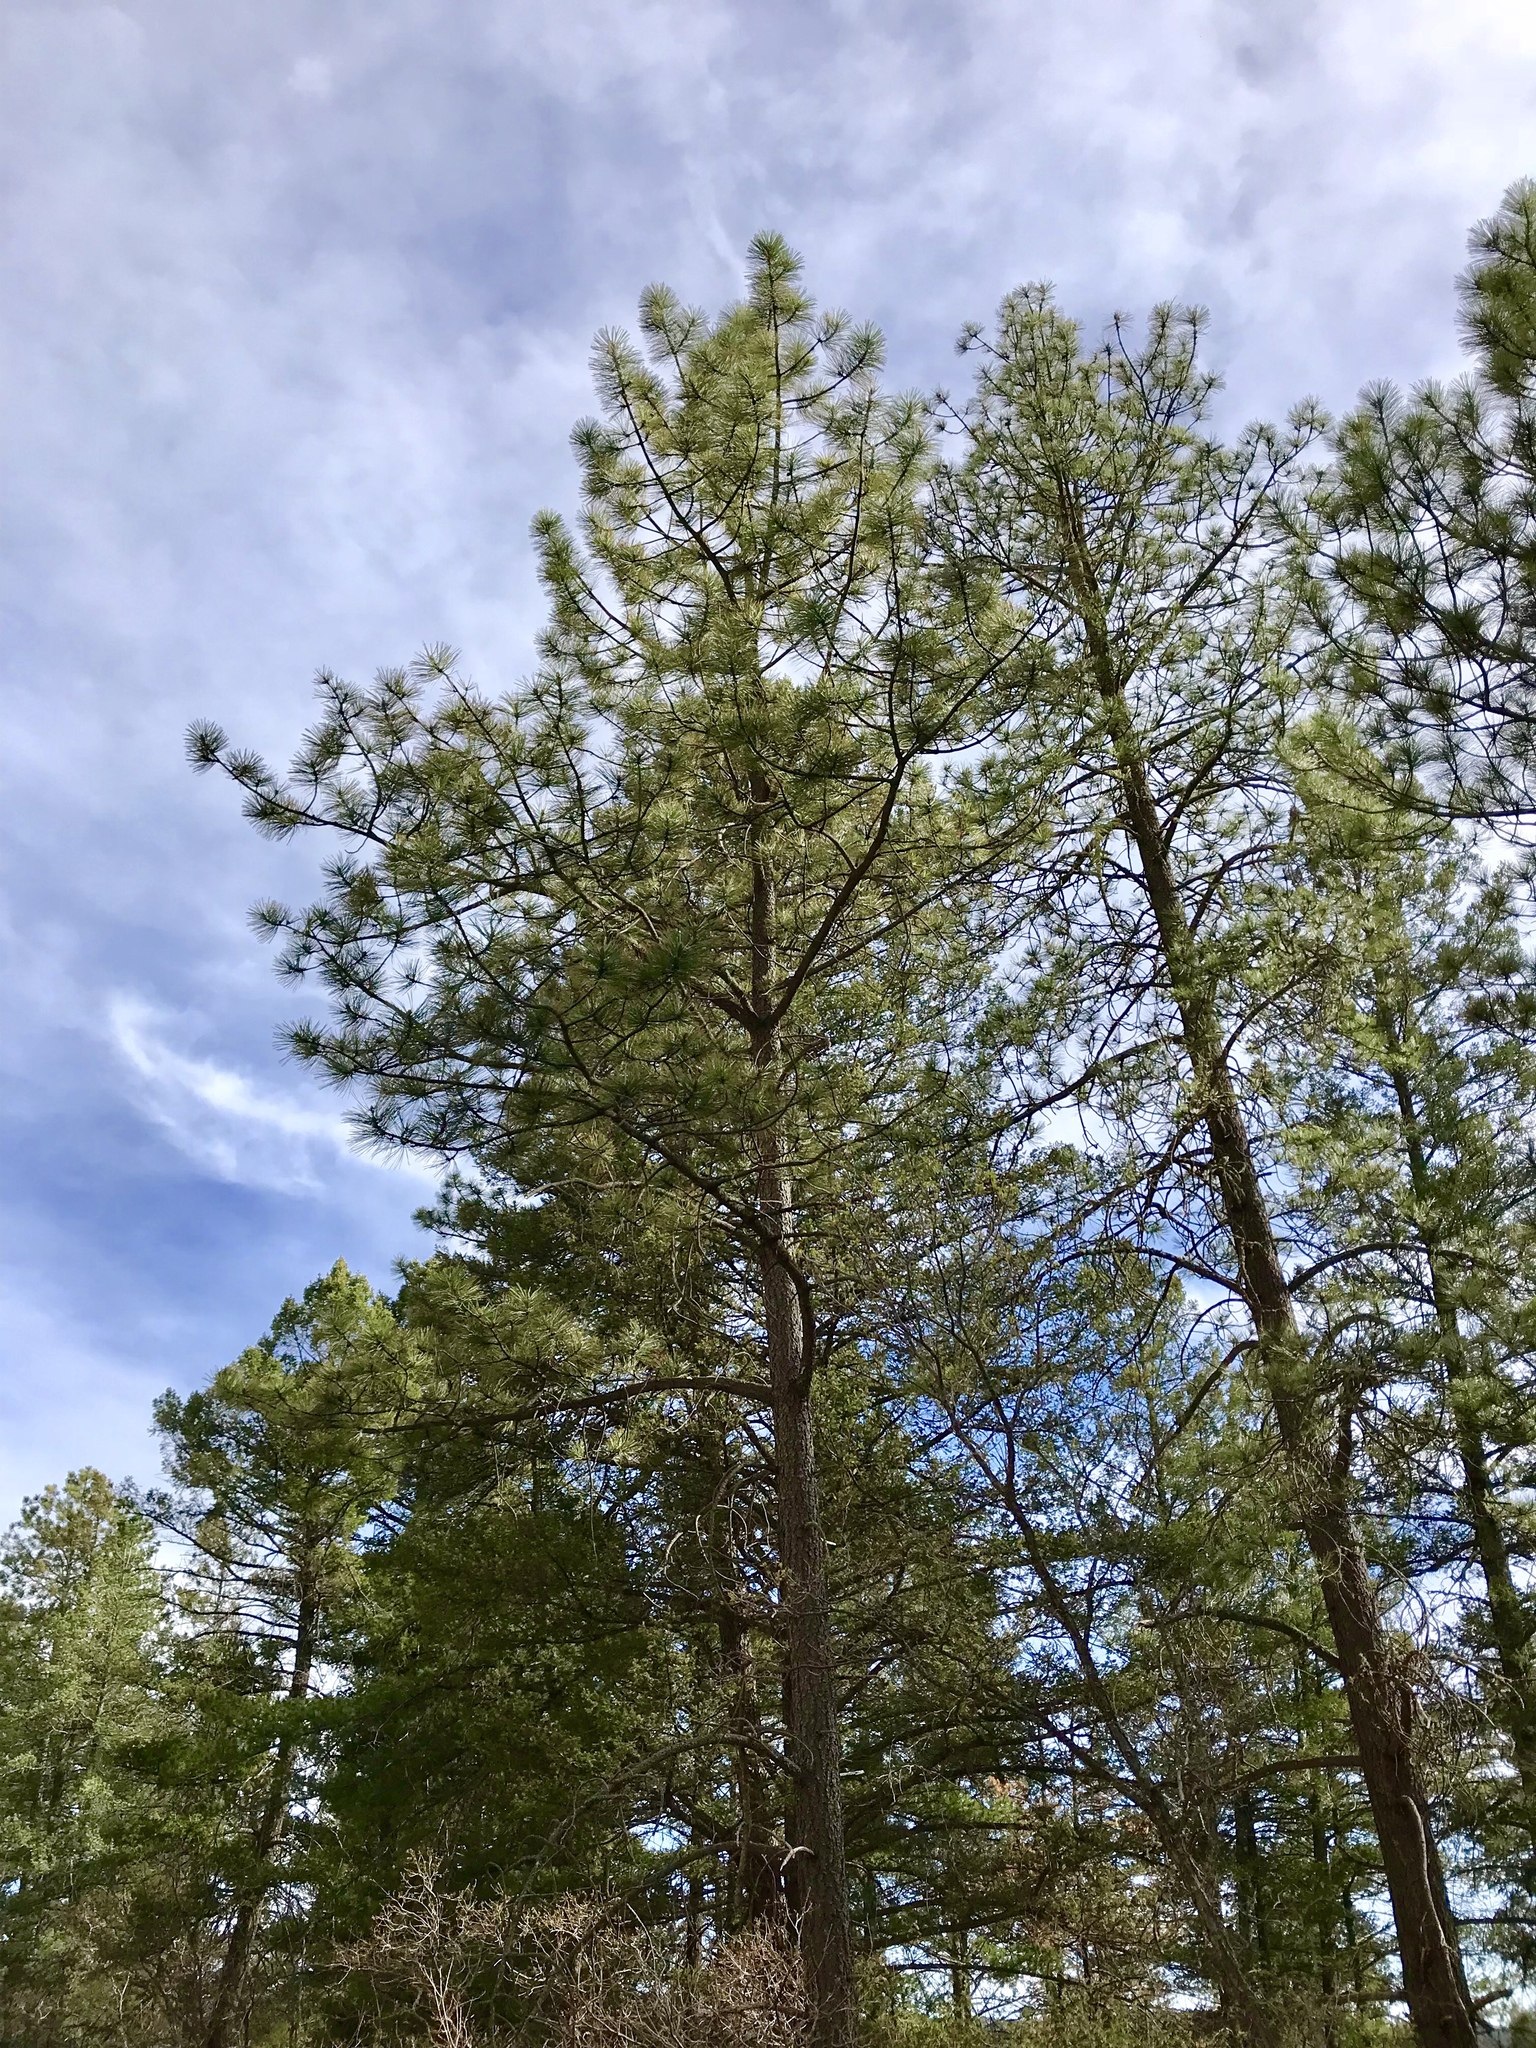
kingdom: Plantae
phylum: Tracheophyta
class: Pinopsida
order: Pinales
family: Pinaceae
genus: Pinus
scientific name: Pinus ponderosa
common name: Western yellow-pine
